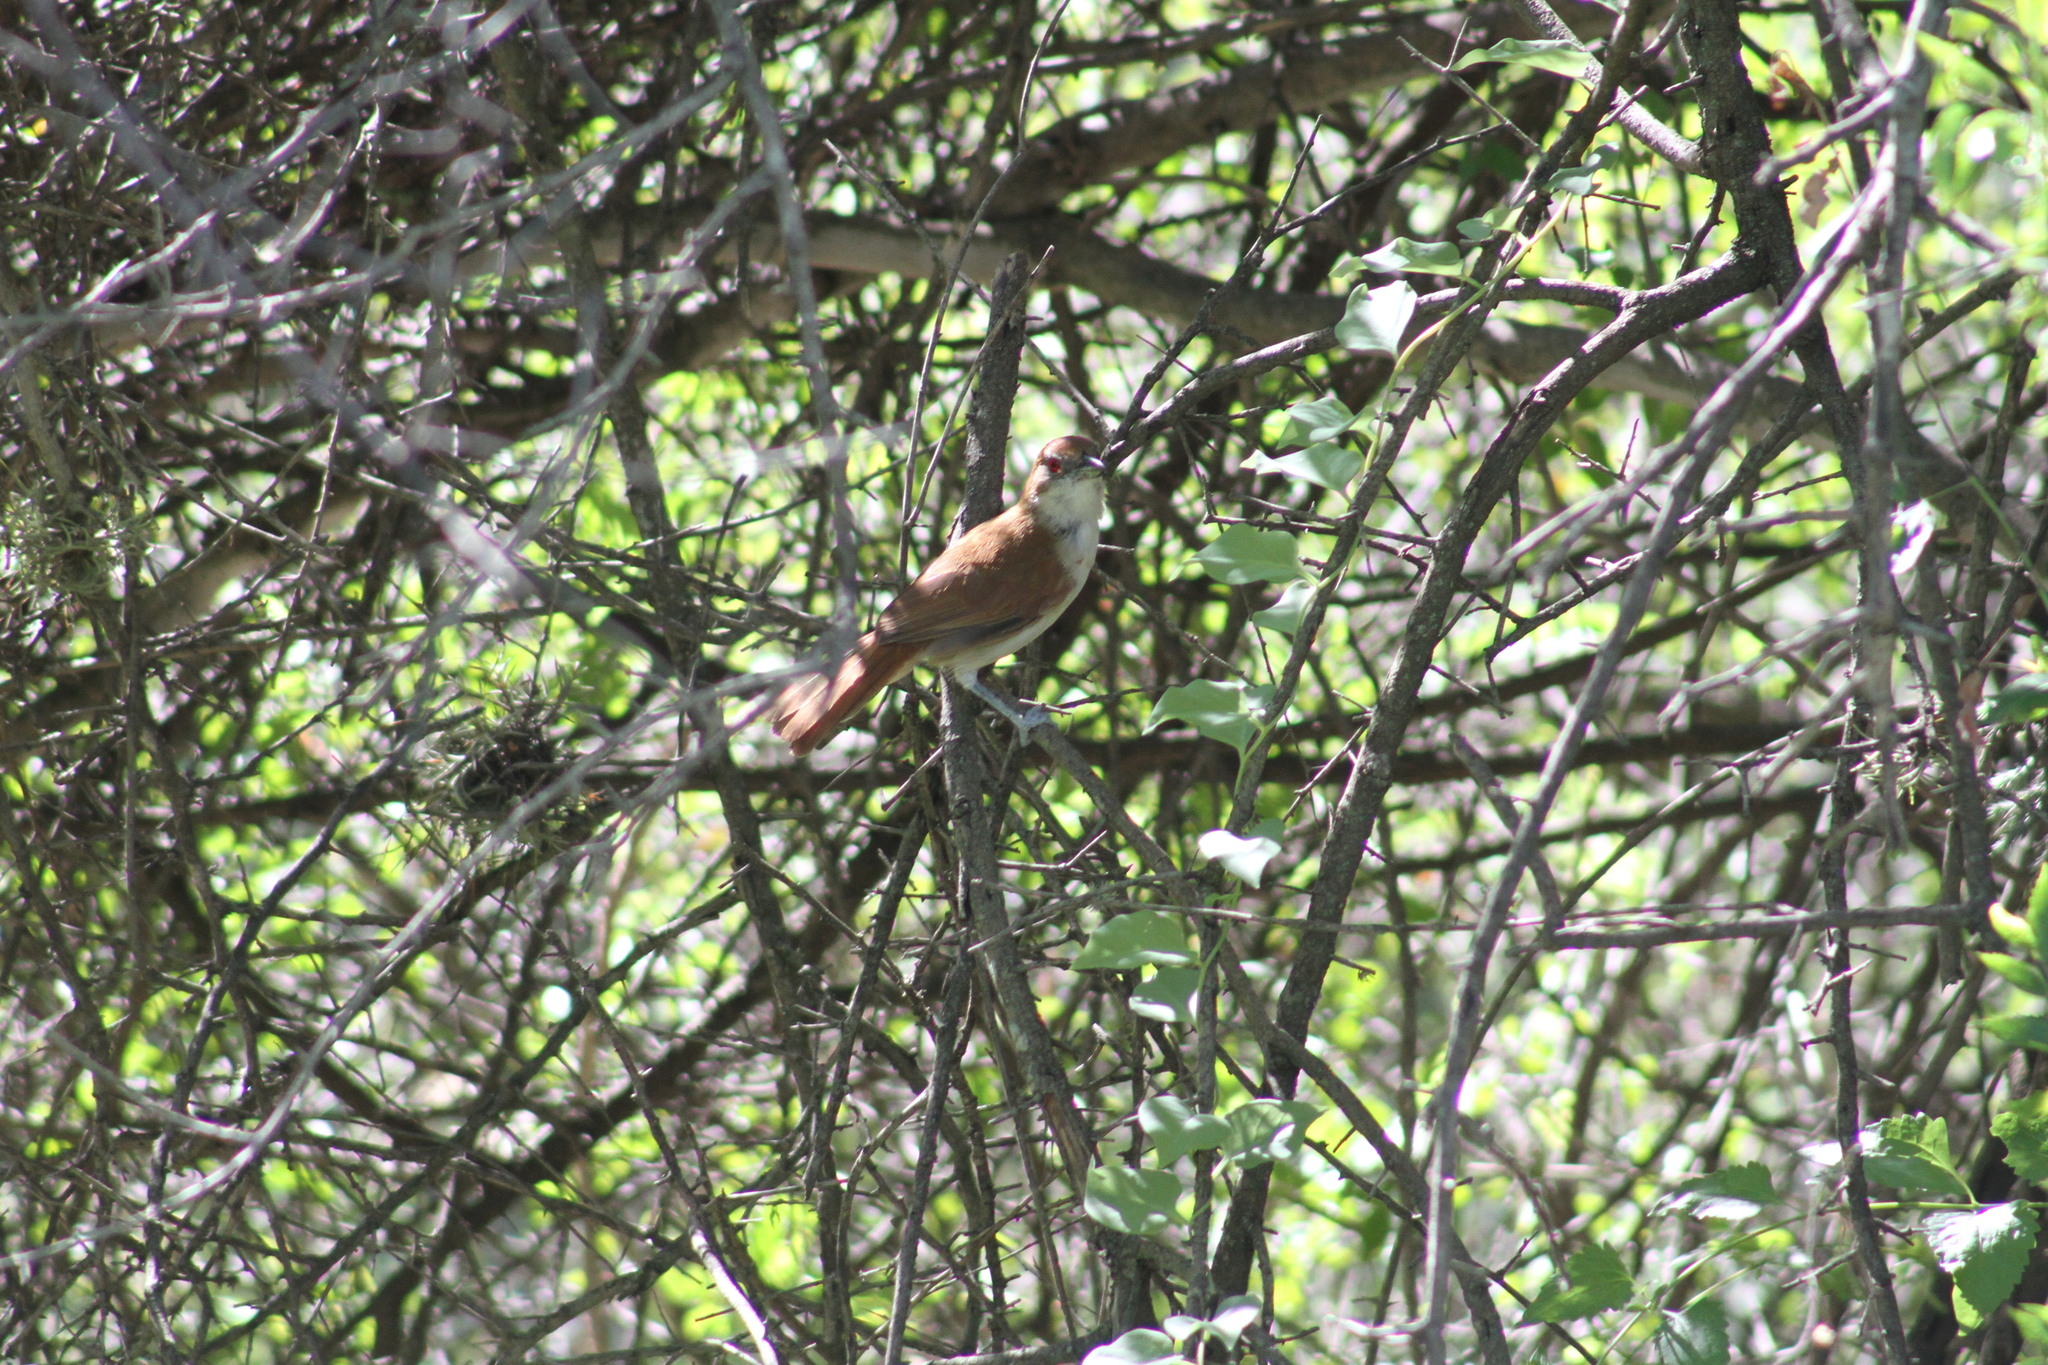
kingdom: Animalia
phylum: Chordata
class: Aves
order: Passeriformes
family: Thamnophilidae
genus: Taraba
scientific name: Taraba major
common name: Great antshrike
